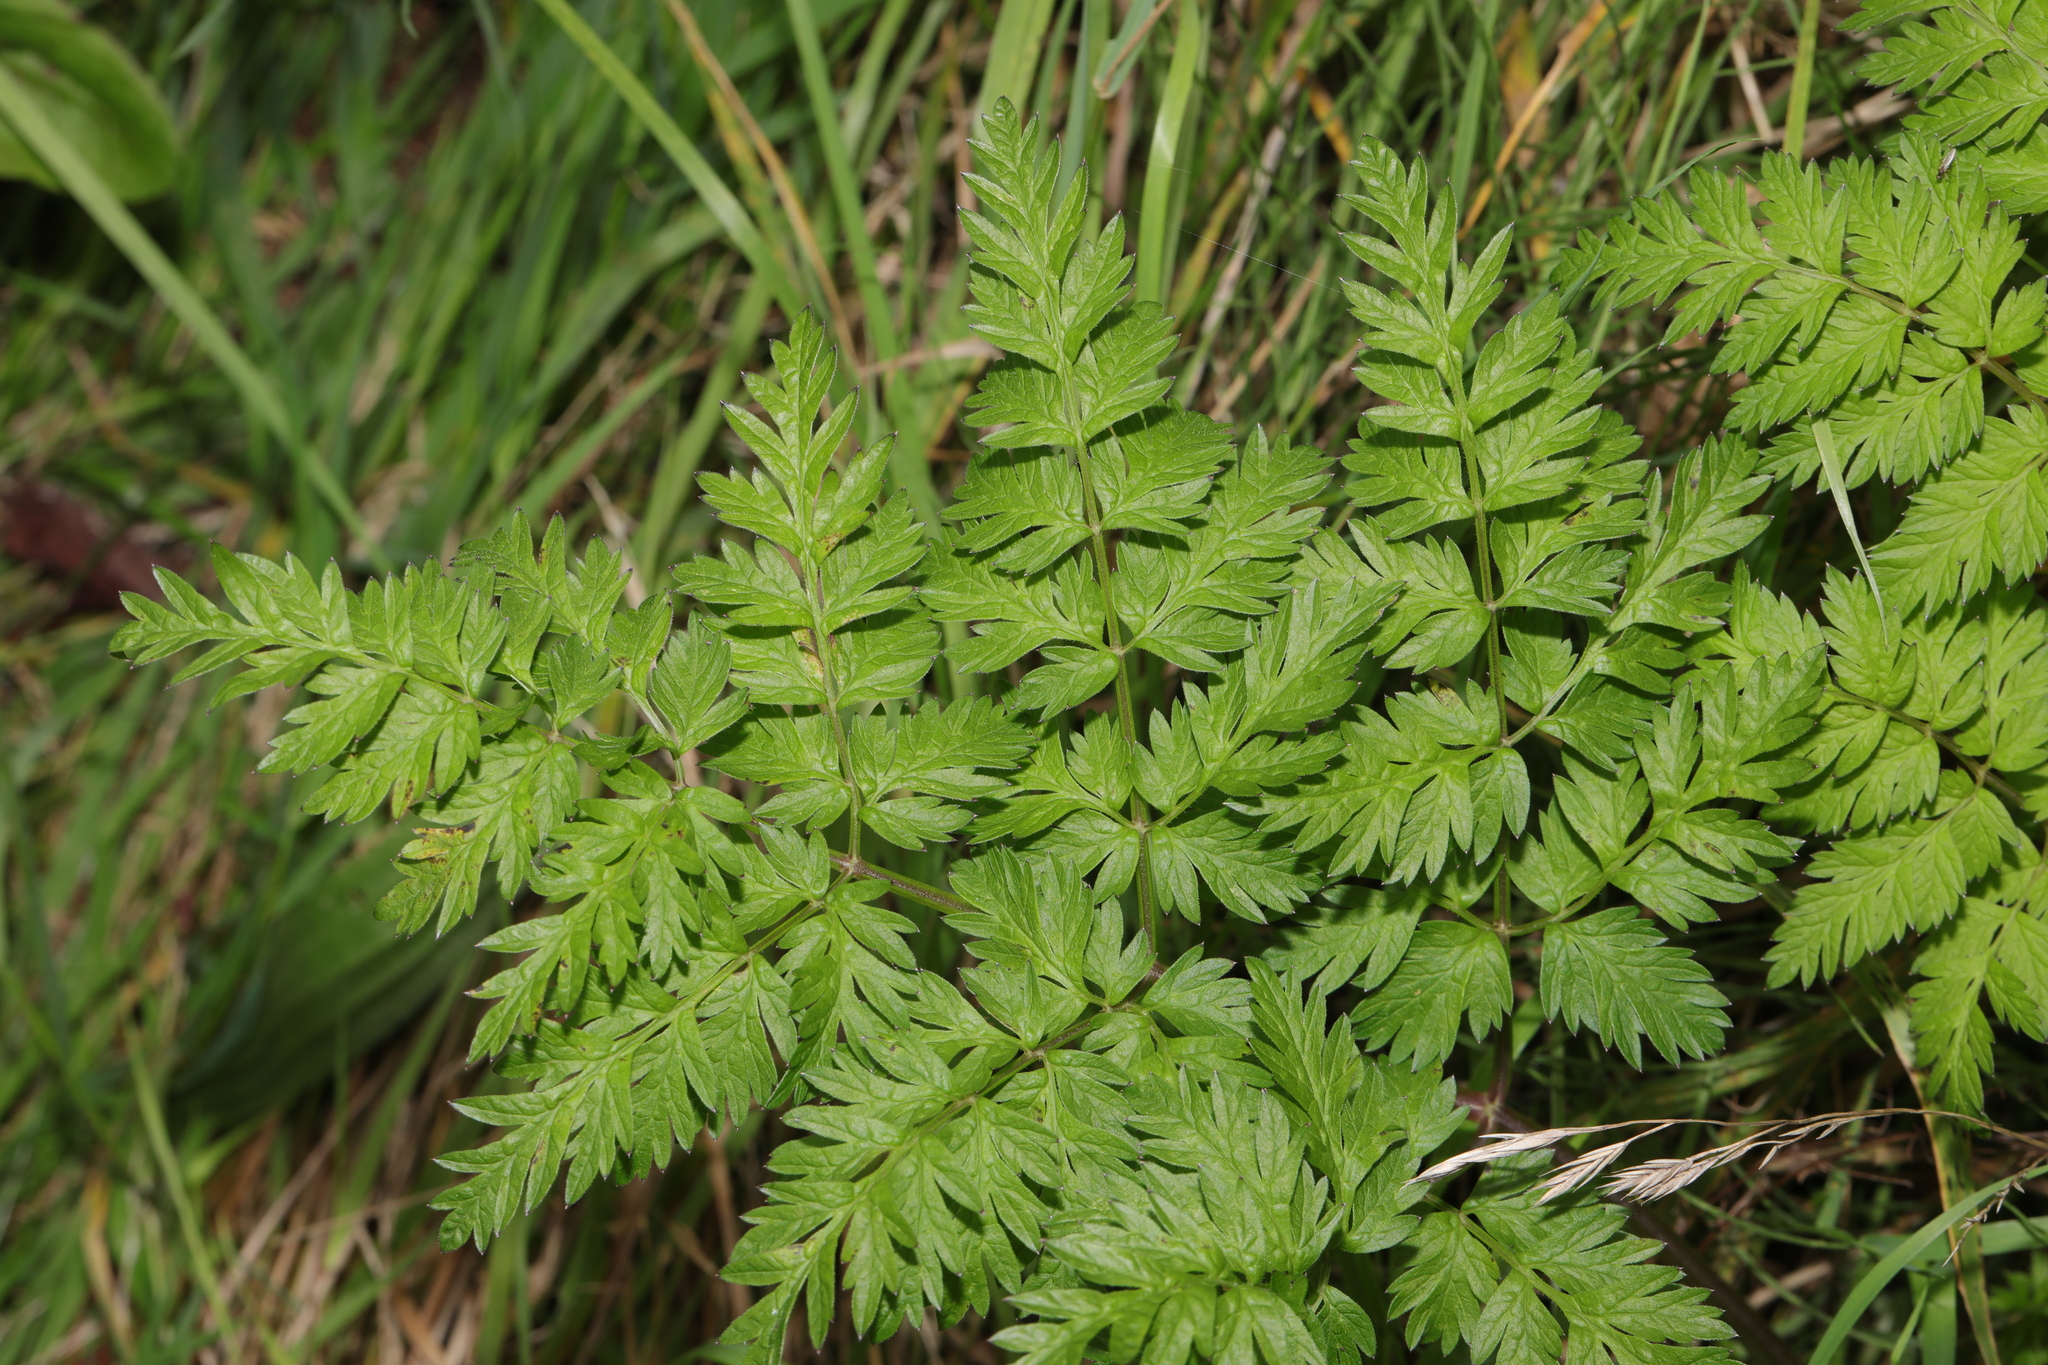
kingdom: Plantae
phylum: Tracheophyta
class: Magnoliopsida
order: Apiales
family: Apiaceae
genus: Anthriscus
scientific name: Anthriscus sylvestris
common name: Cow parsley
